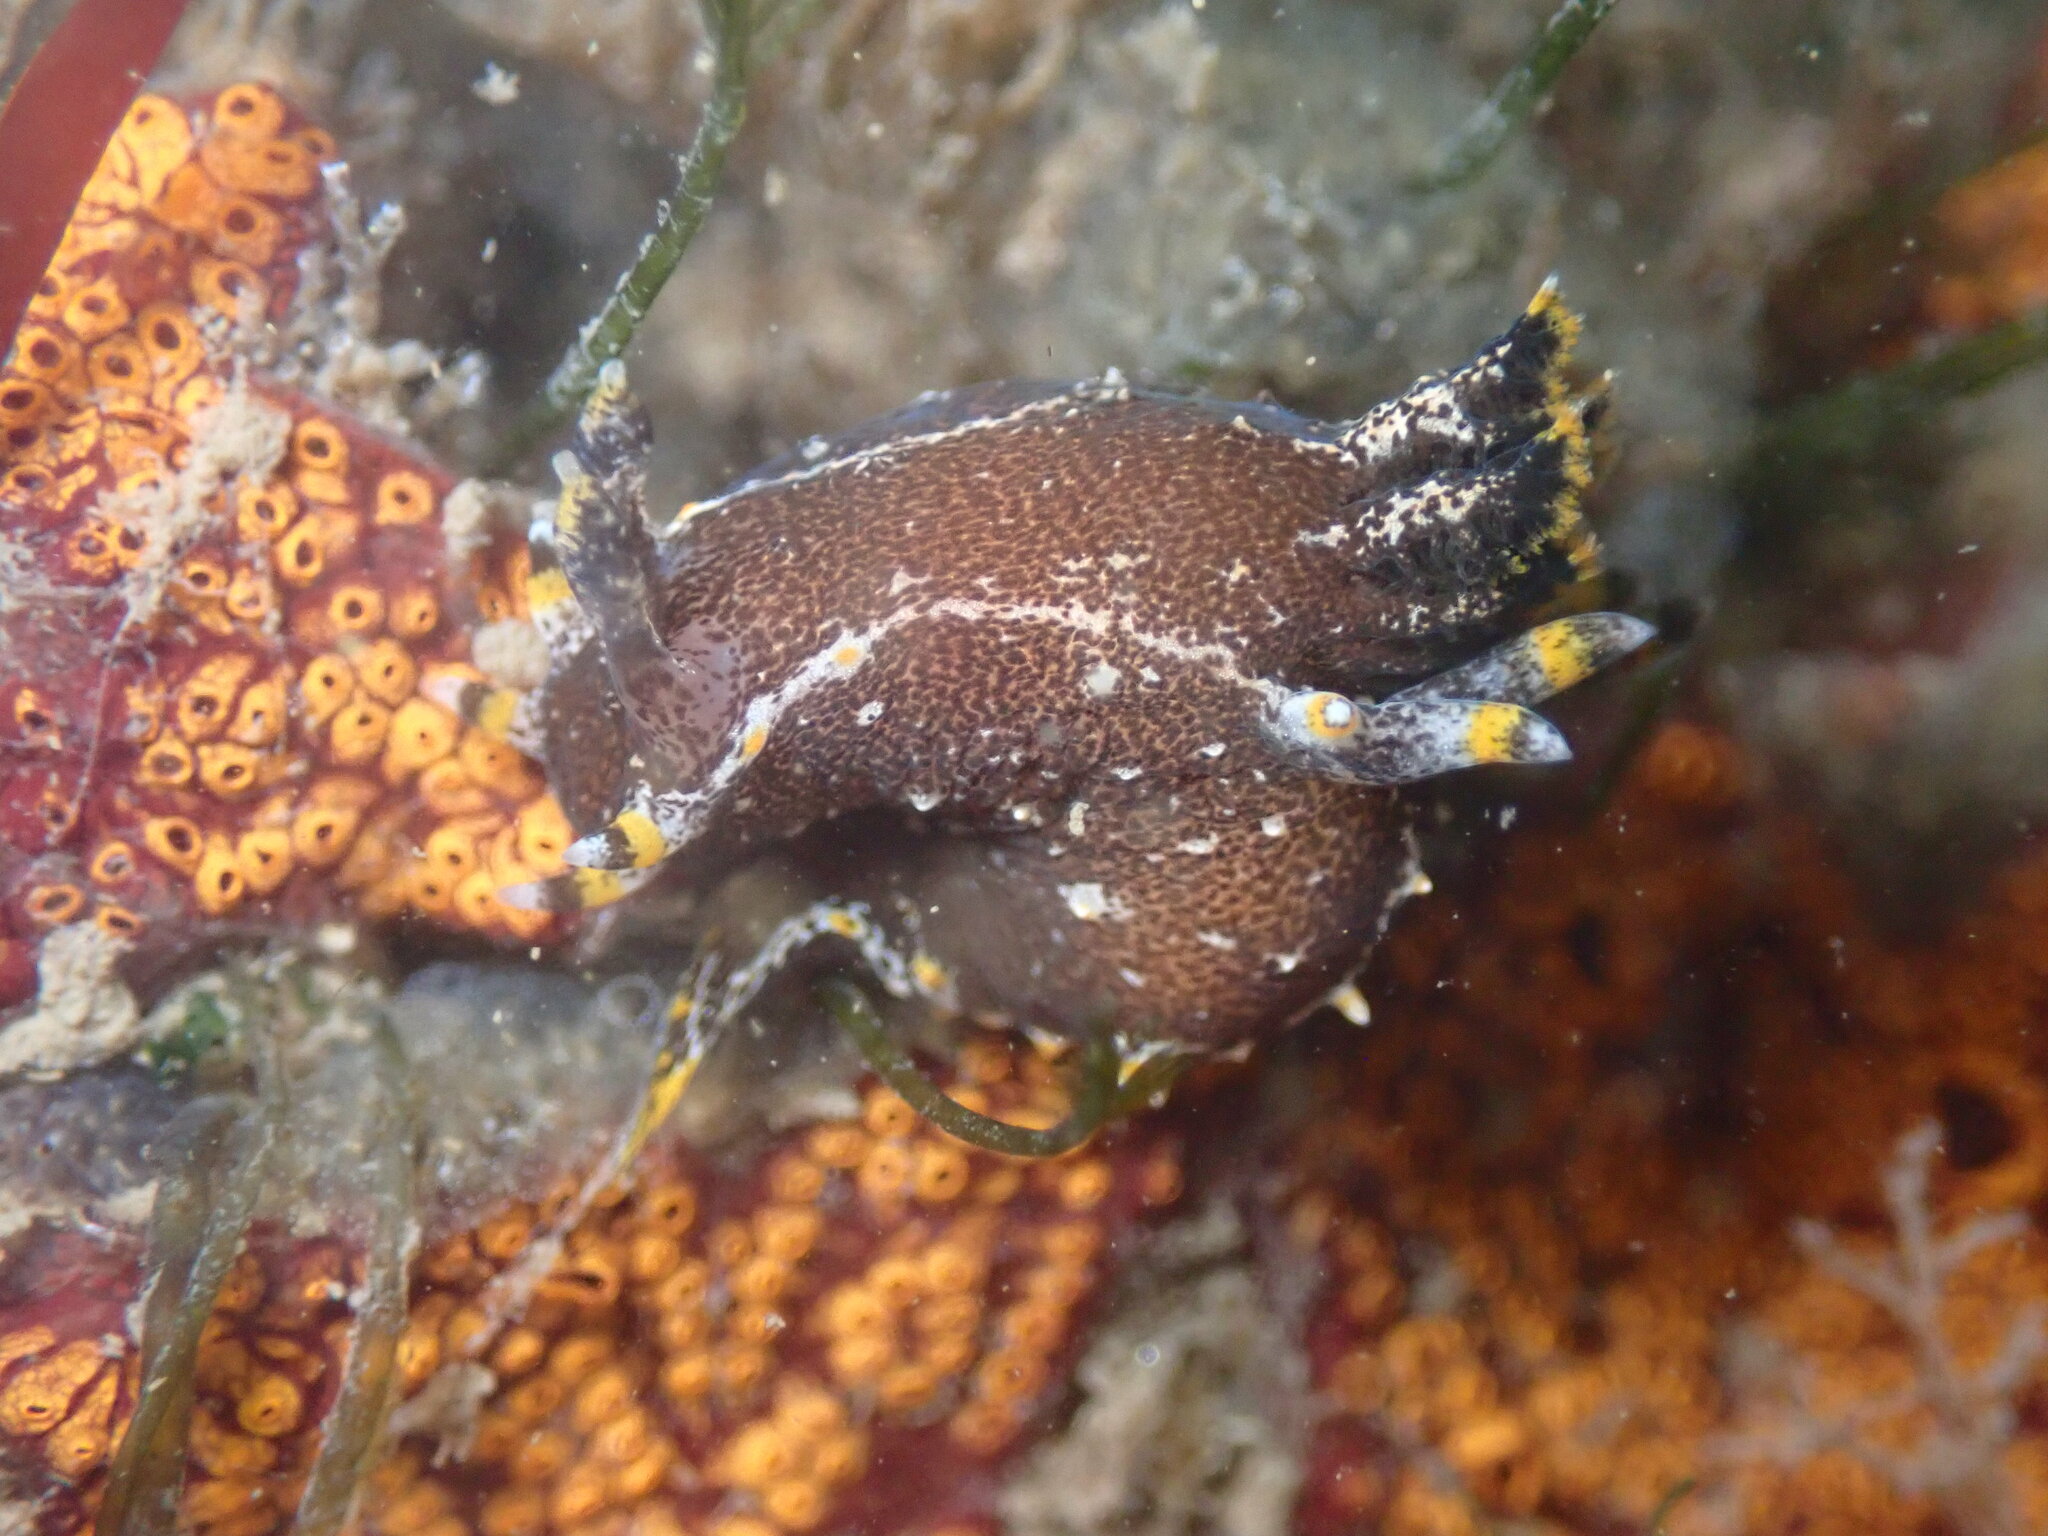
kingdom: Animalia
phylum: Mollusca
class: Gastropoda
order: Nudibranchia
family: Polyceridae
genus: Polycera
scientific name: Polycera hedgpethi
